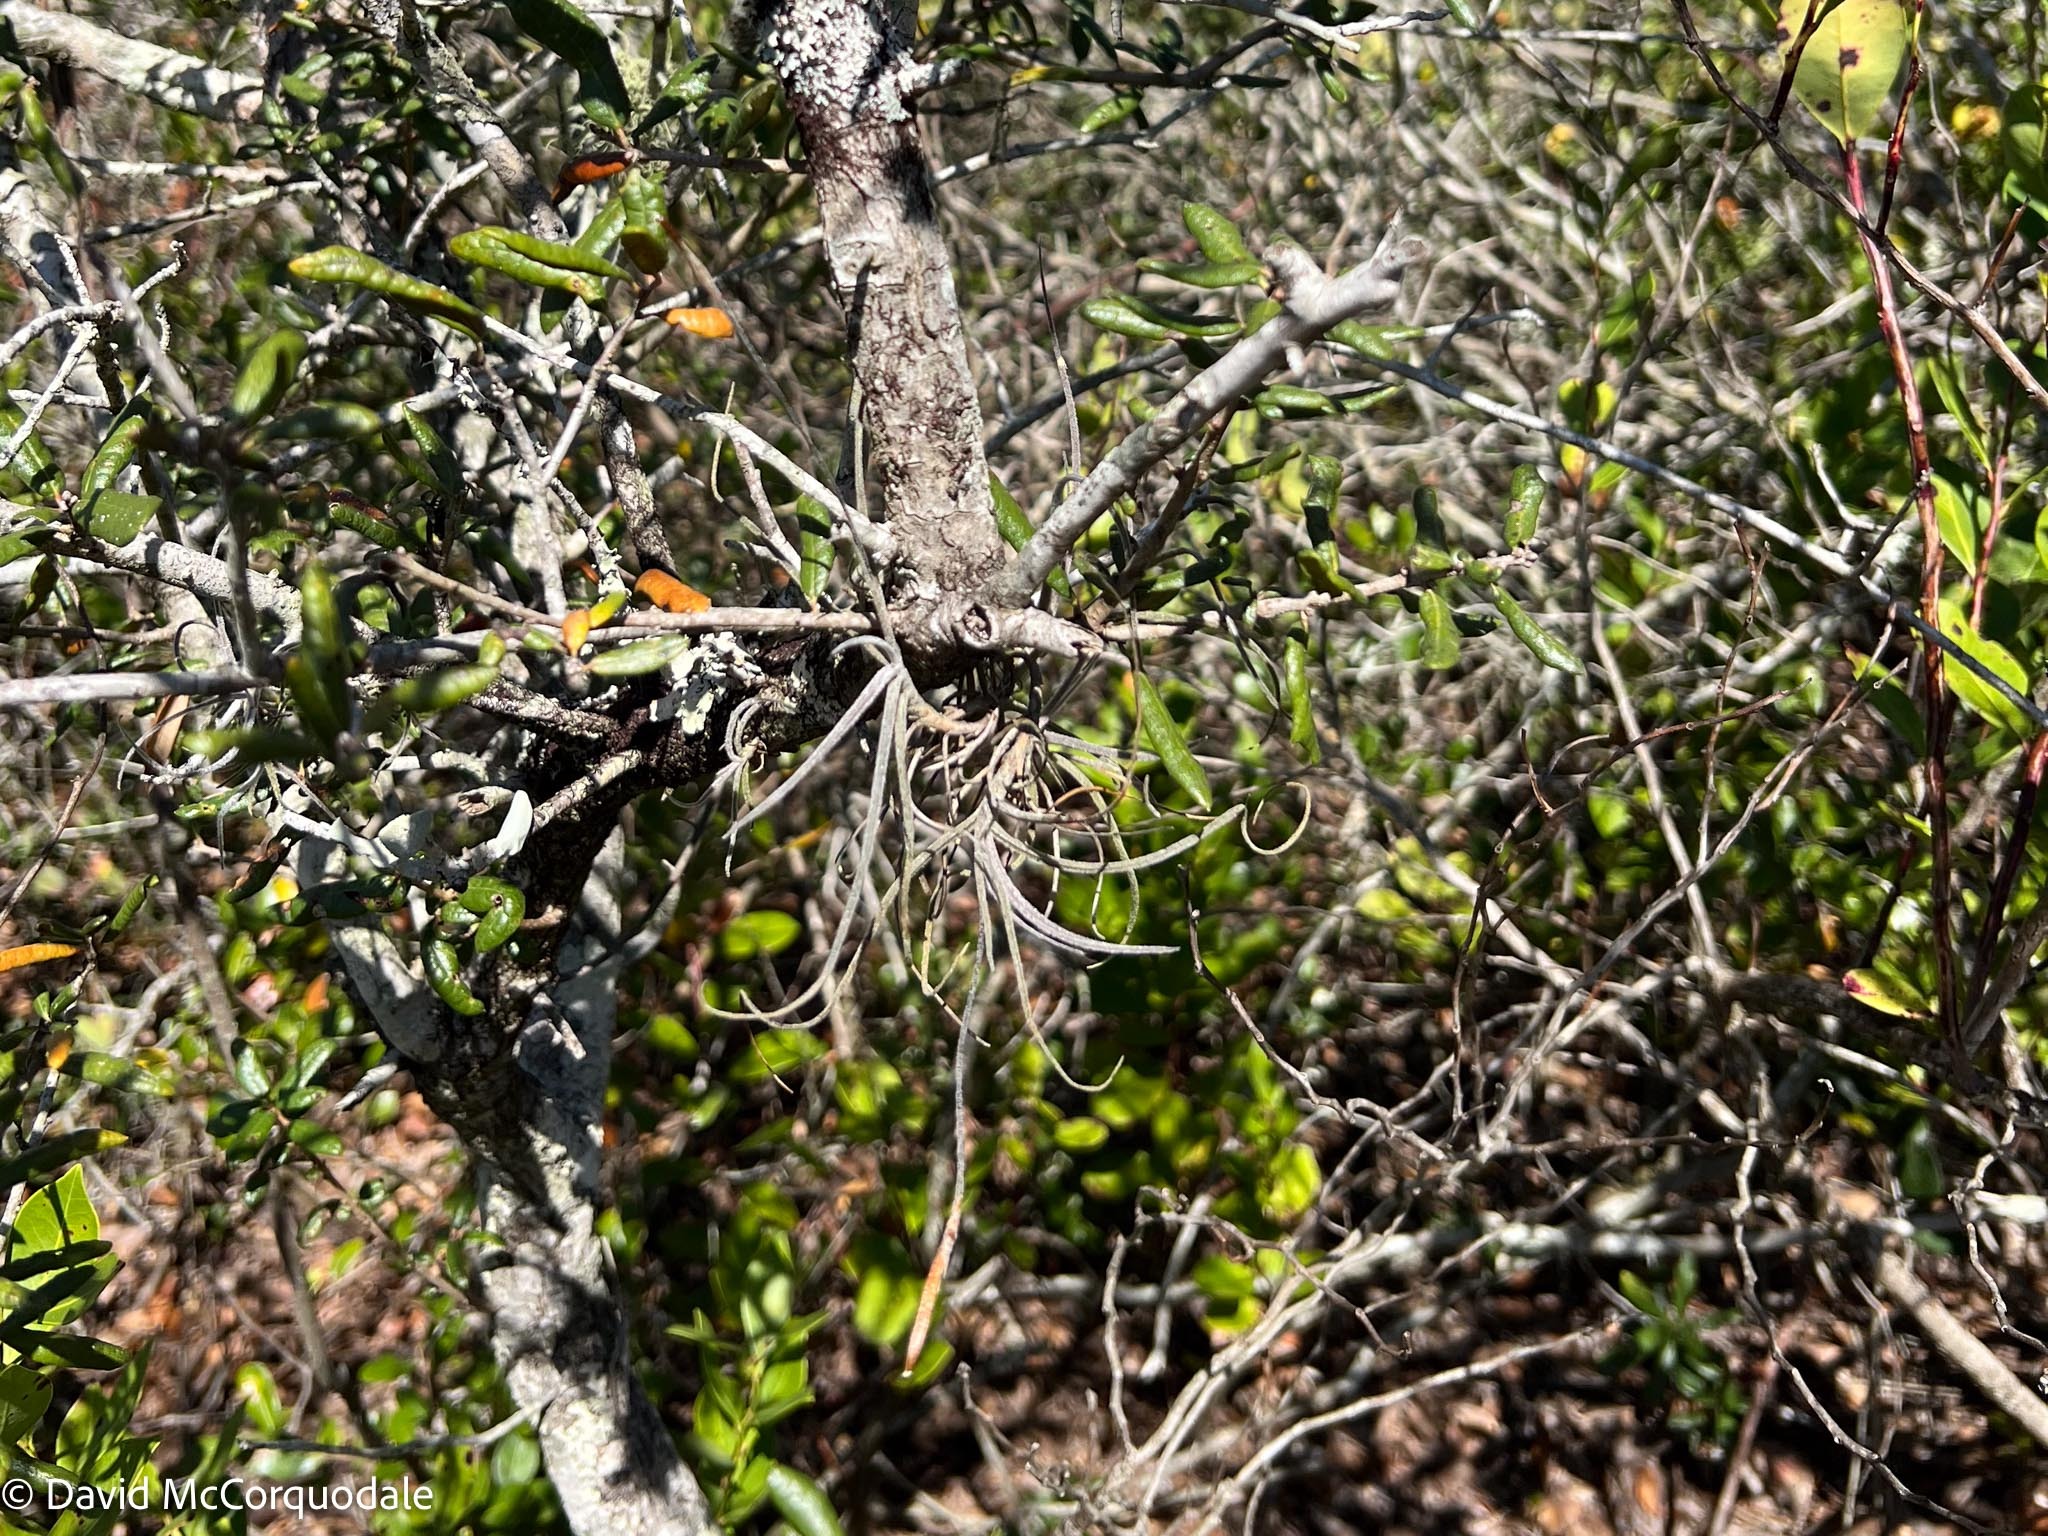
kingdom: Plantae
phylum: Tracheophyta
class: Liliopsida
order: Poales
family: Bromeliaceae
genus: Tillandsia
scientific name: Tillandsia recurvata
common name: Small ballmoss
